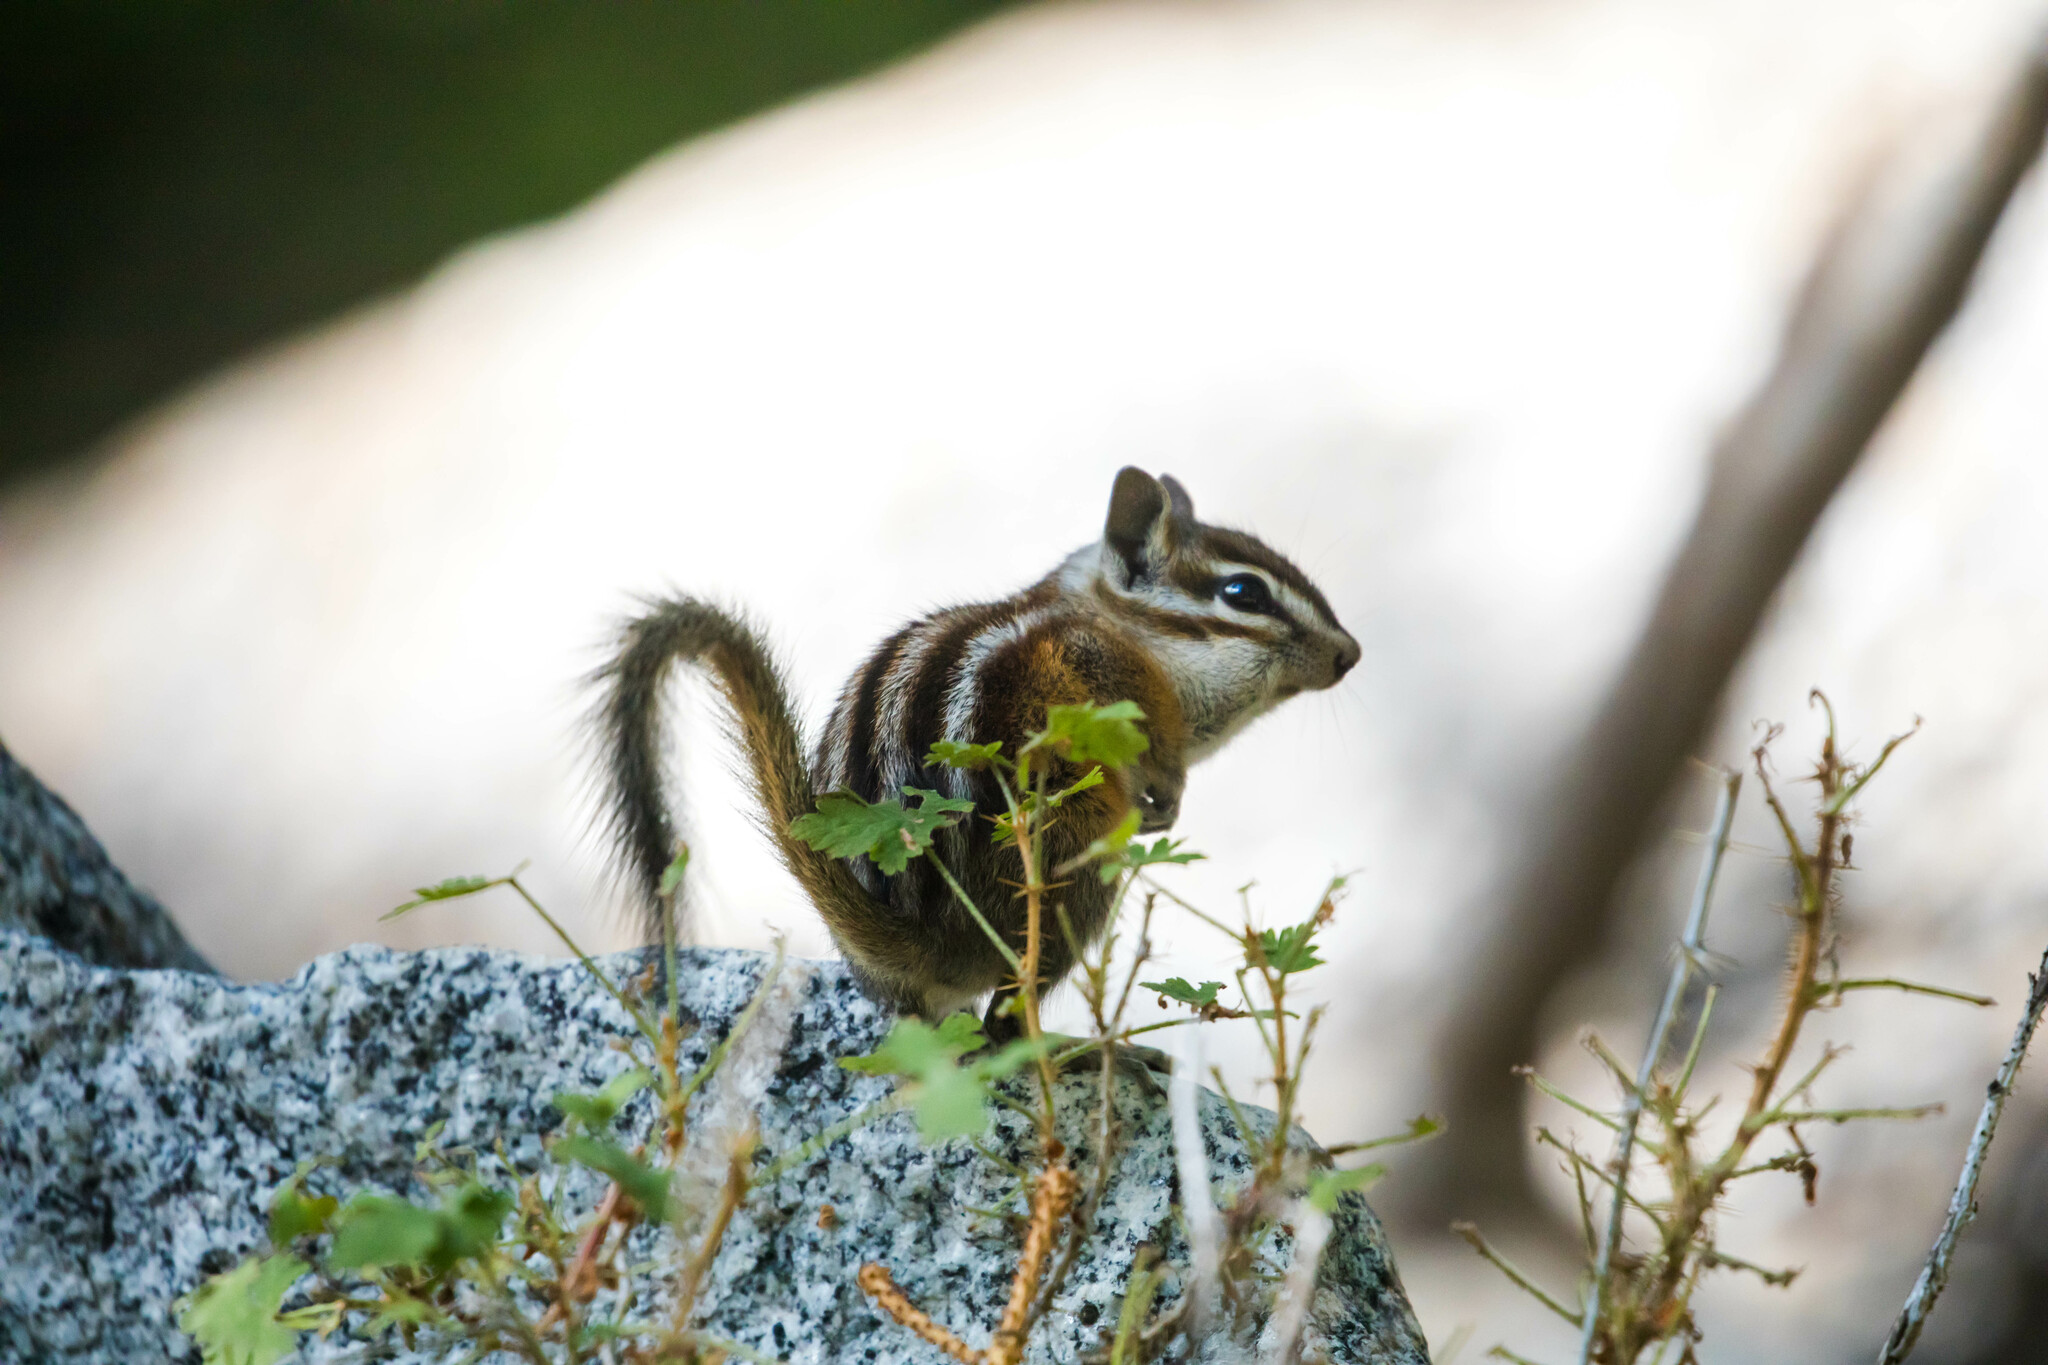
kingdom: Animalia
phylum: Chordata
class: Mammalia
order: Rodentia
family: Sciuridae
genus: Tamias
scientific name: Tamias minimus
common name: Least chipmunk
